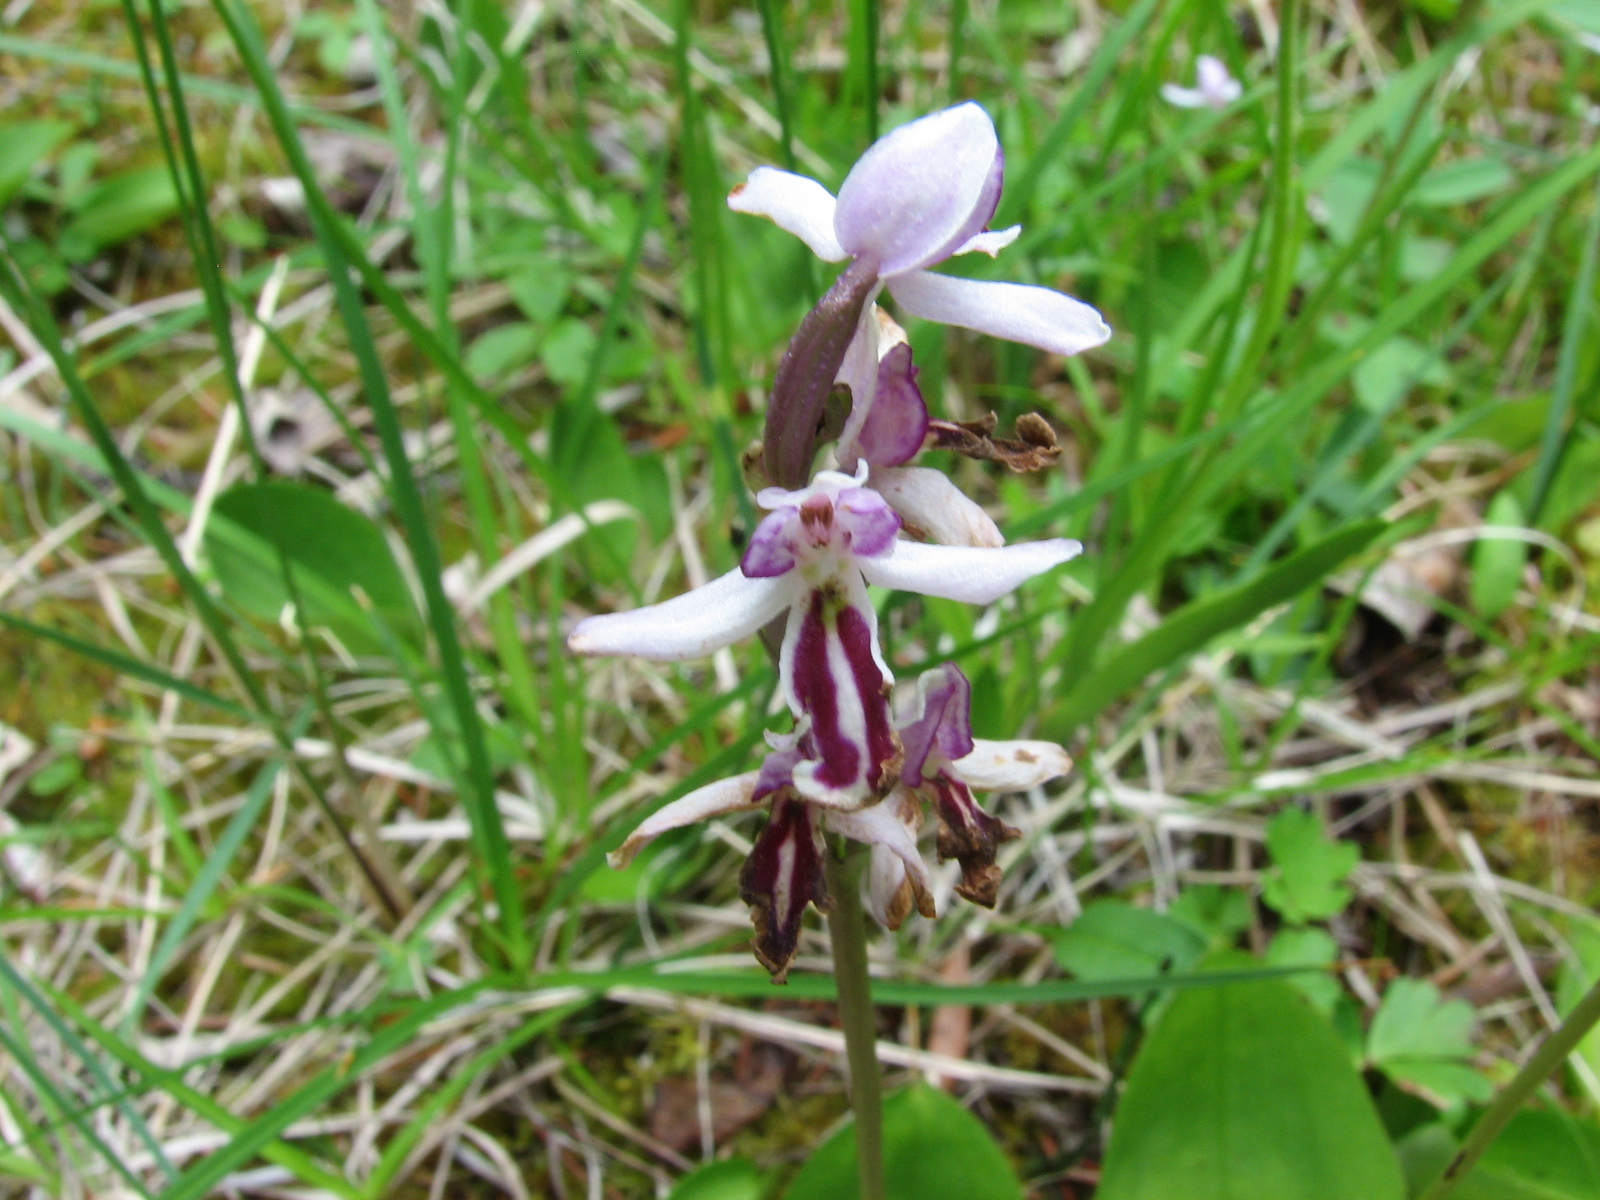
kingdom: Plantae
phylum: Tracheophyta
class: Liliopsida
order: Asparagales
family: Orchidaceae
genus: Galearis
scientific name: Galearis rotundifolia
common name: One-leaved orchis
